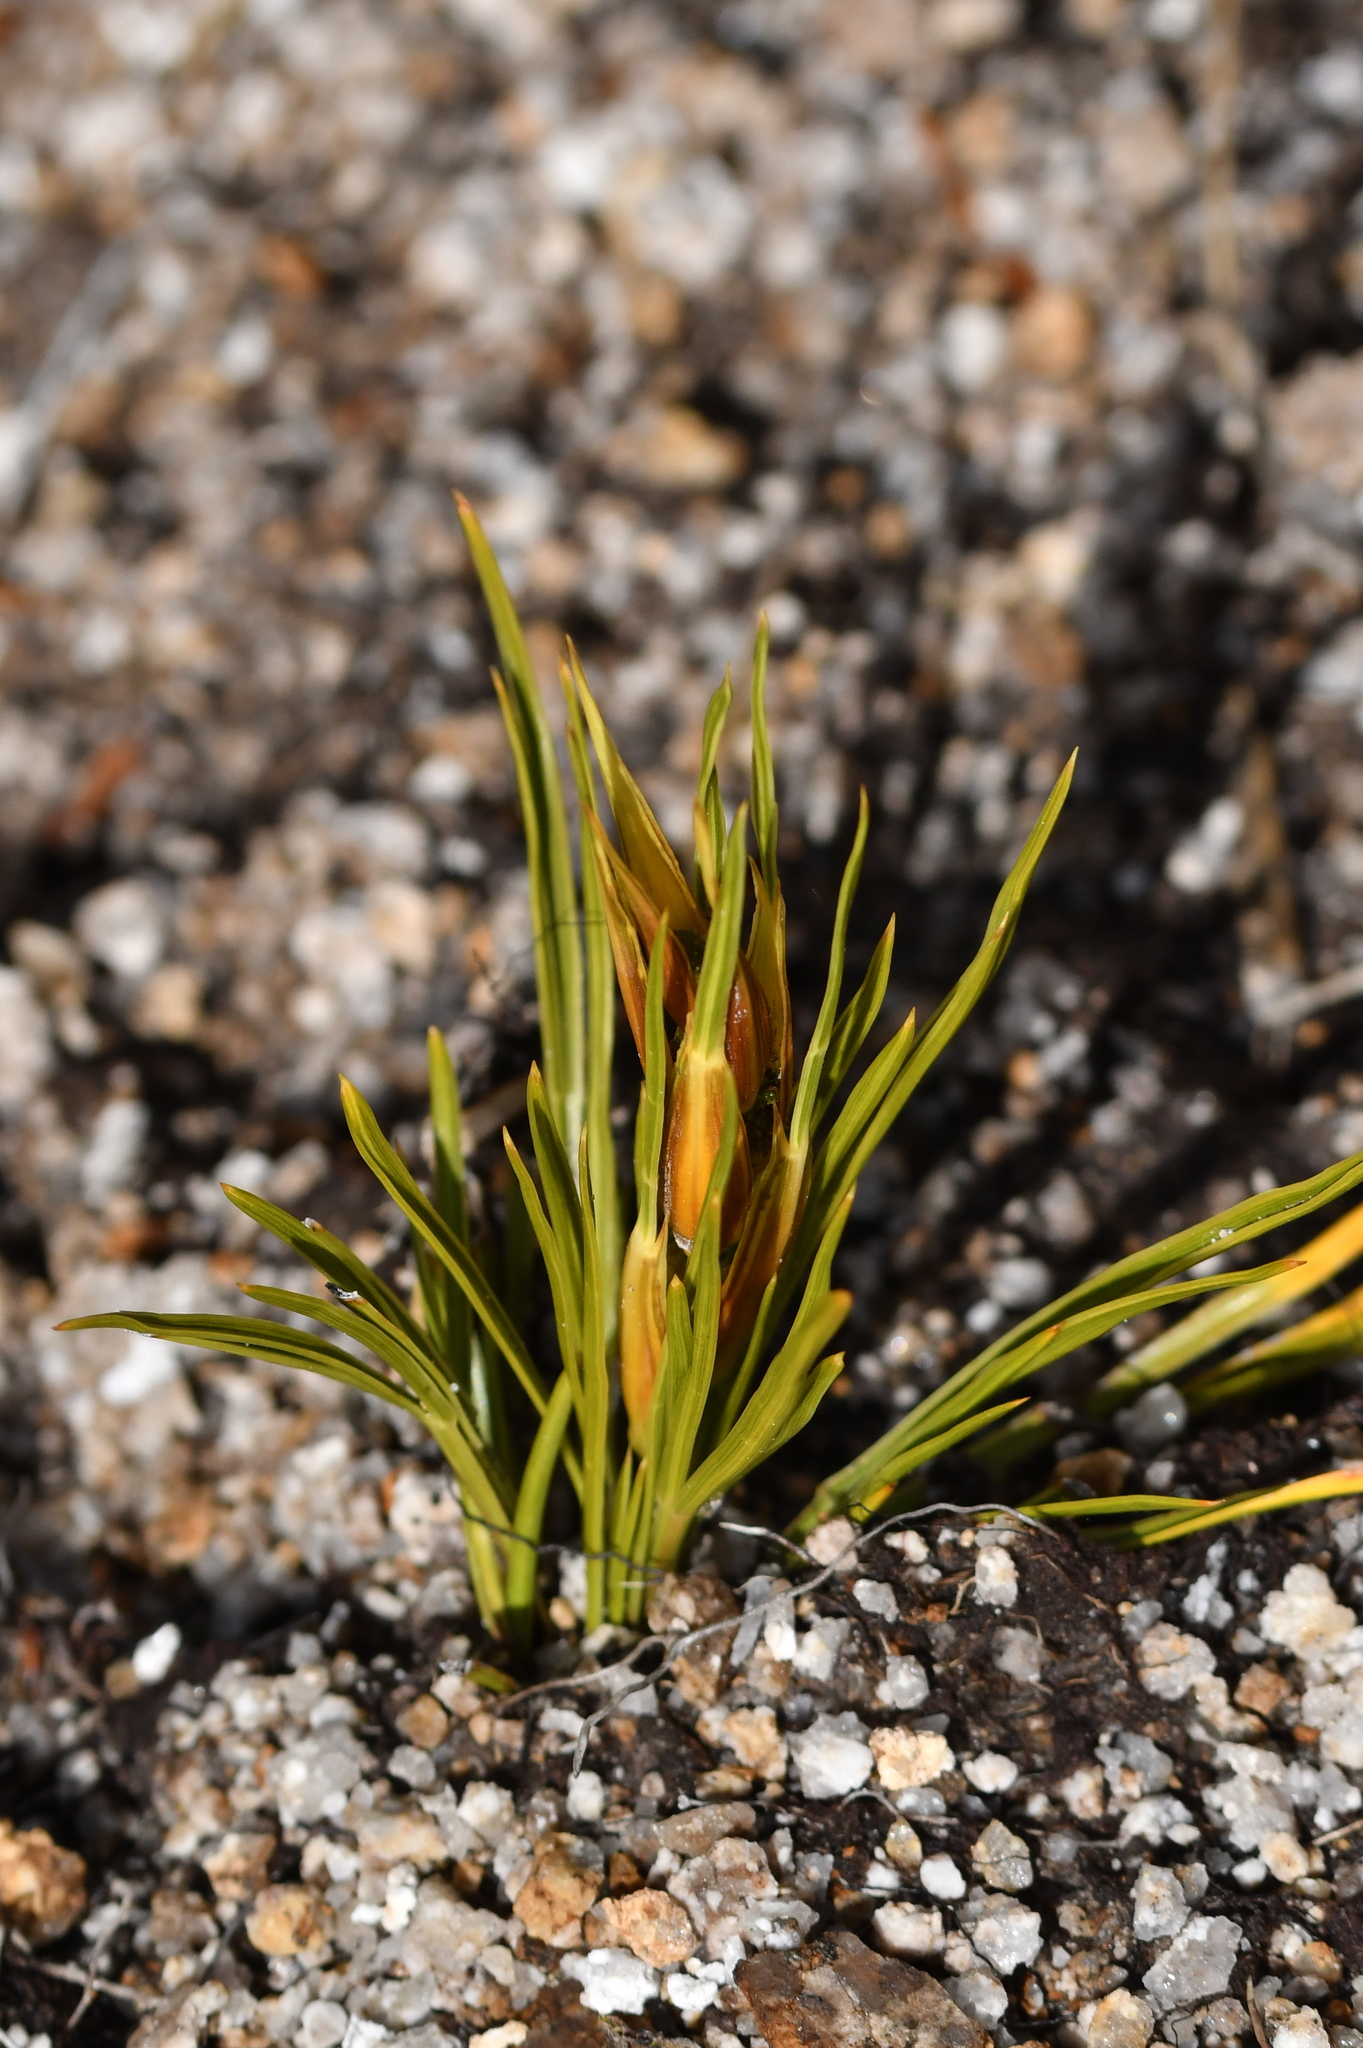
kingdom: Plantae
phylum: Tracheophyta
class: Magnoliopsida
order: Apiales
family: Apiaceae
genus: Aciphylla
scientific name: Aciphylla lyallii
